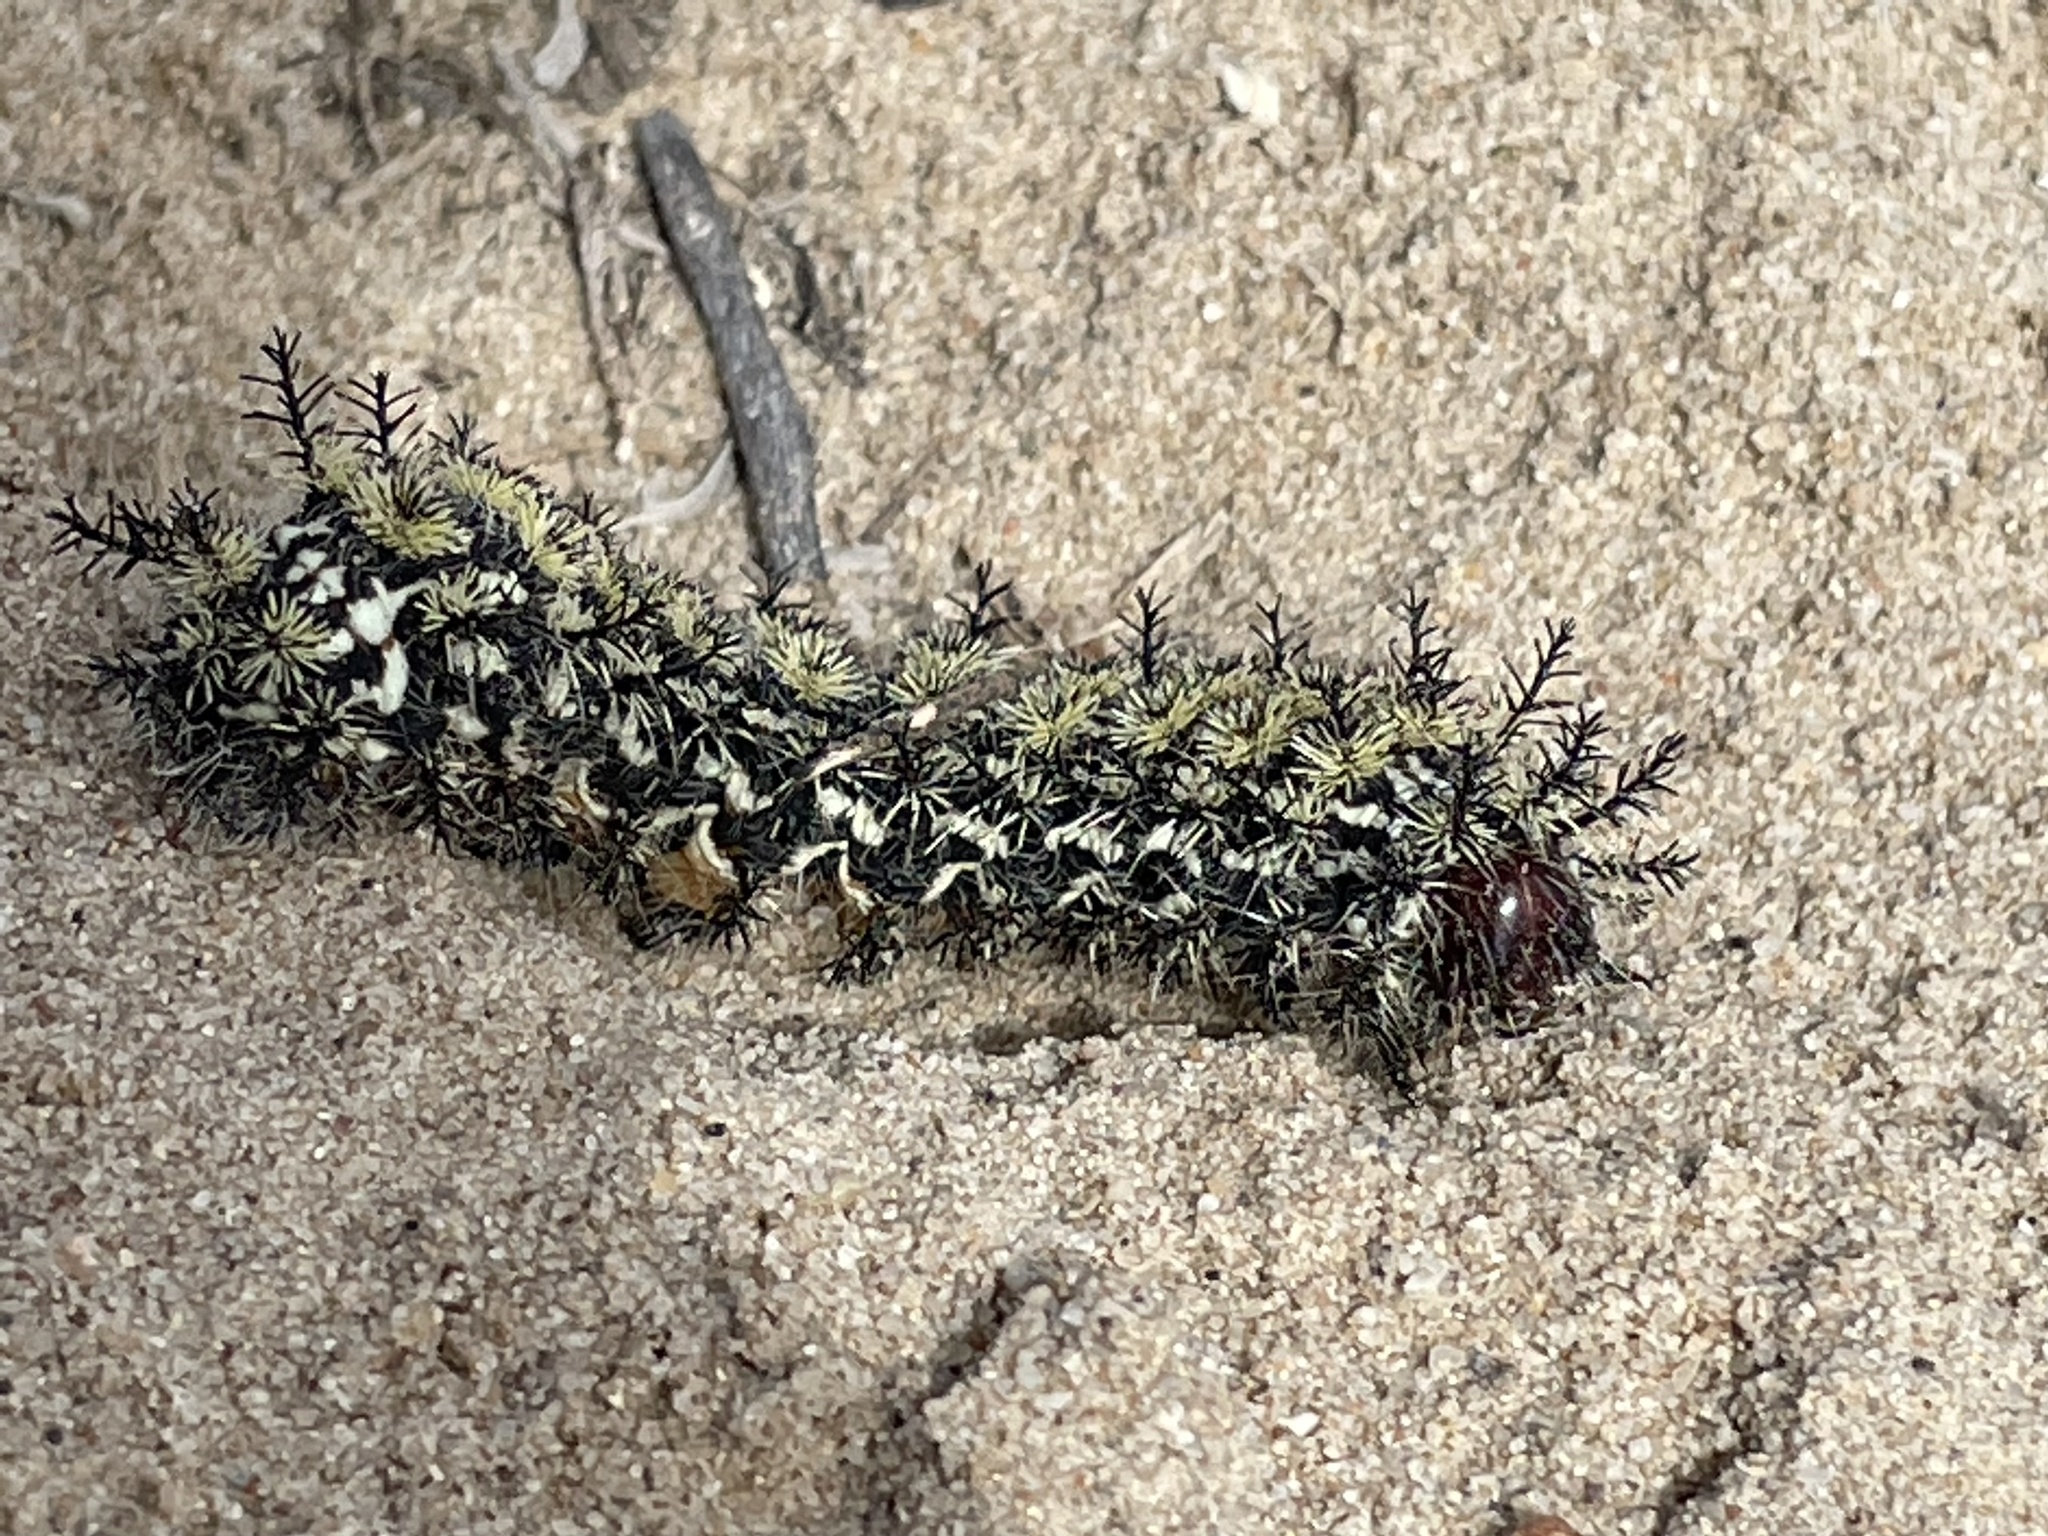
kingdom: Animalia
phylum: Arthropoda
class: Insecta
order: Lepidoptera
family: Saturniidae
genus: Hemileuca
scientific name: Hemileuca hera
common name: Hera sheepmoth
